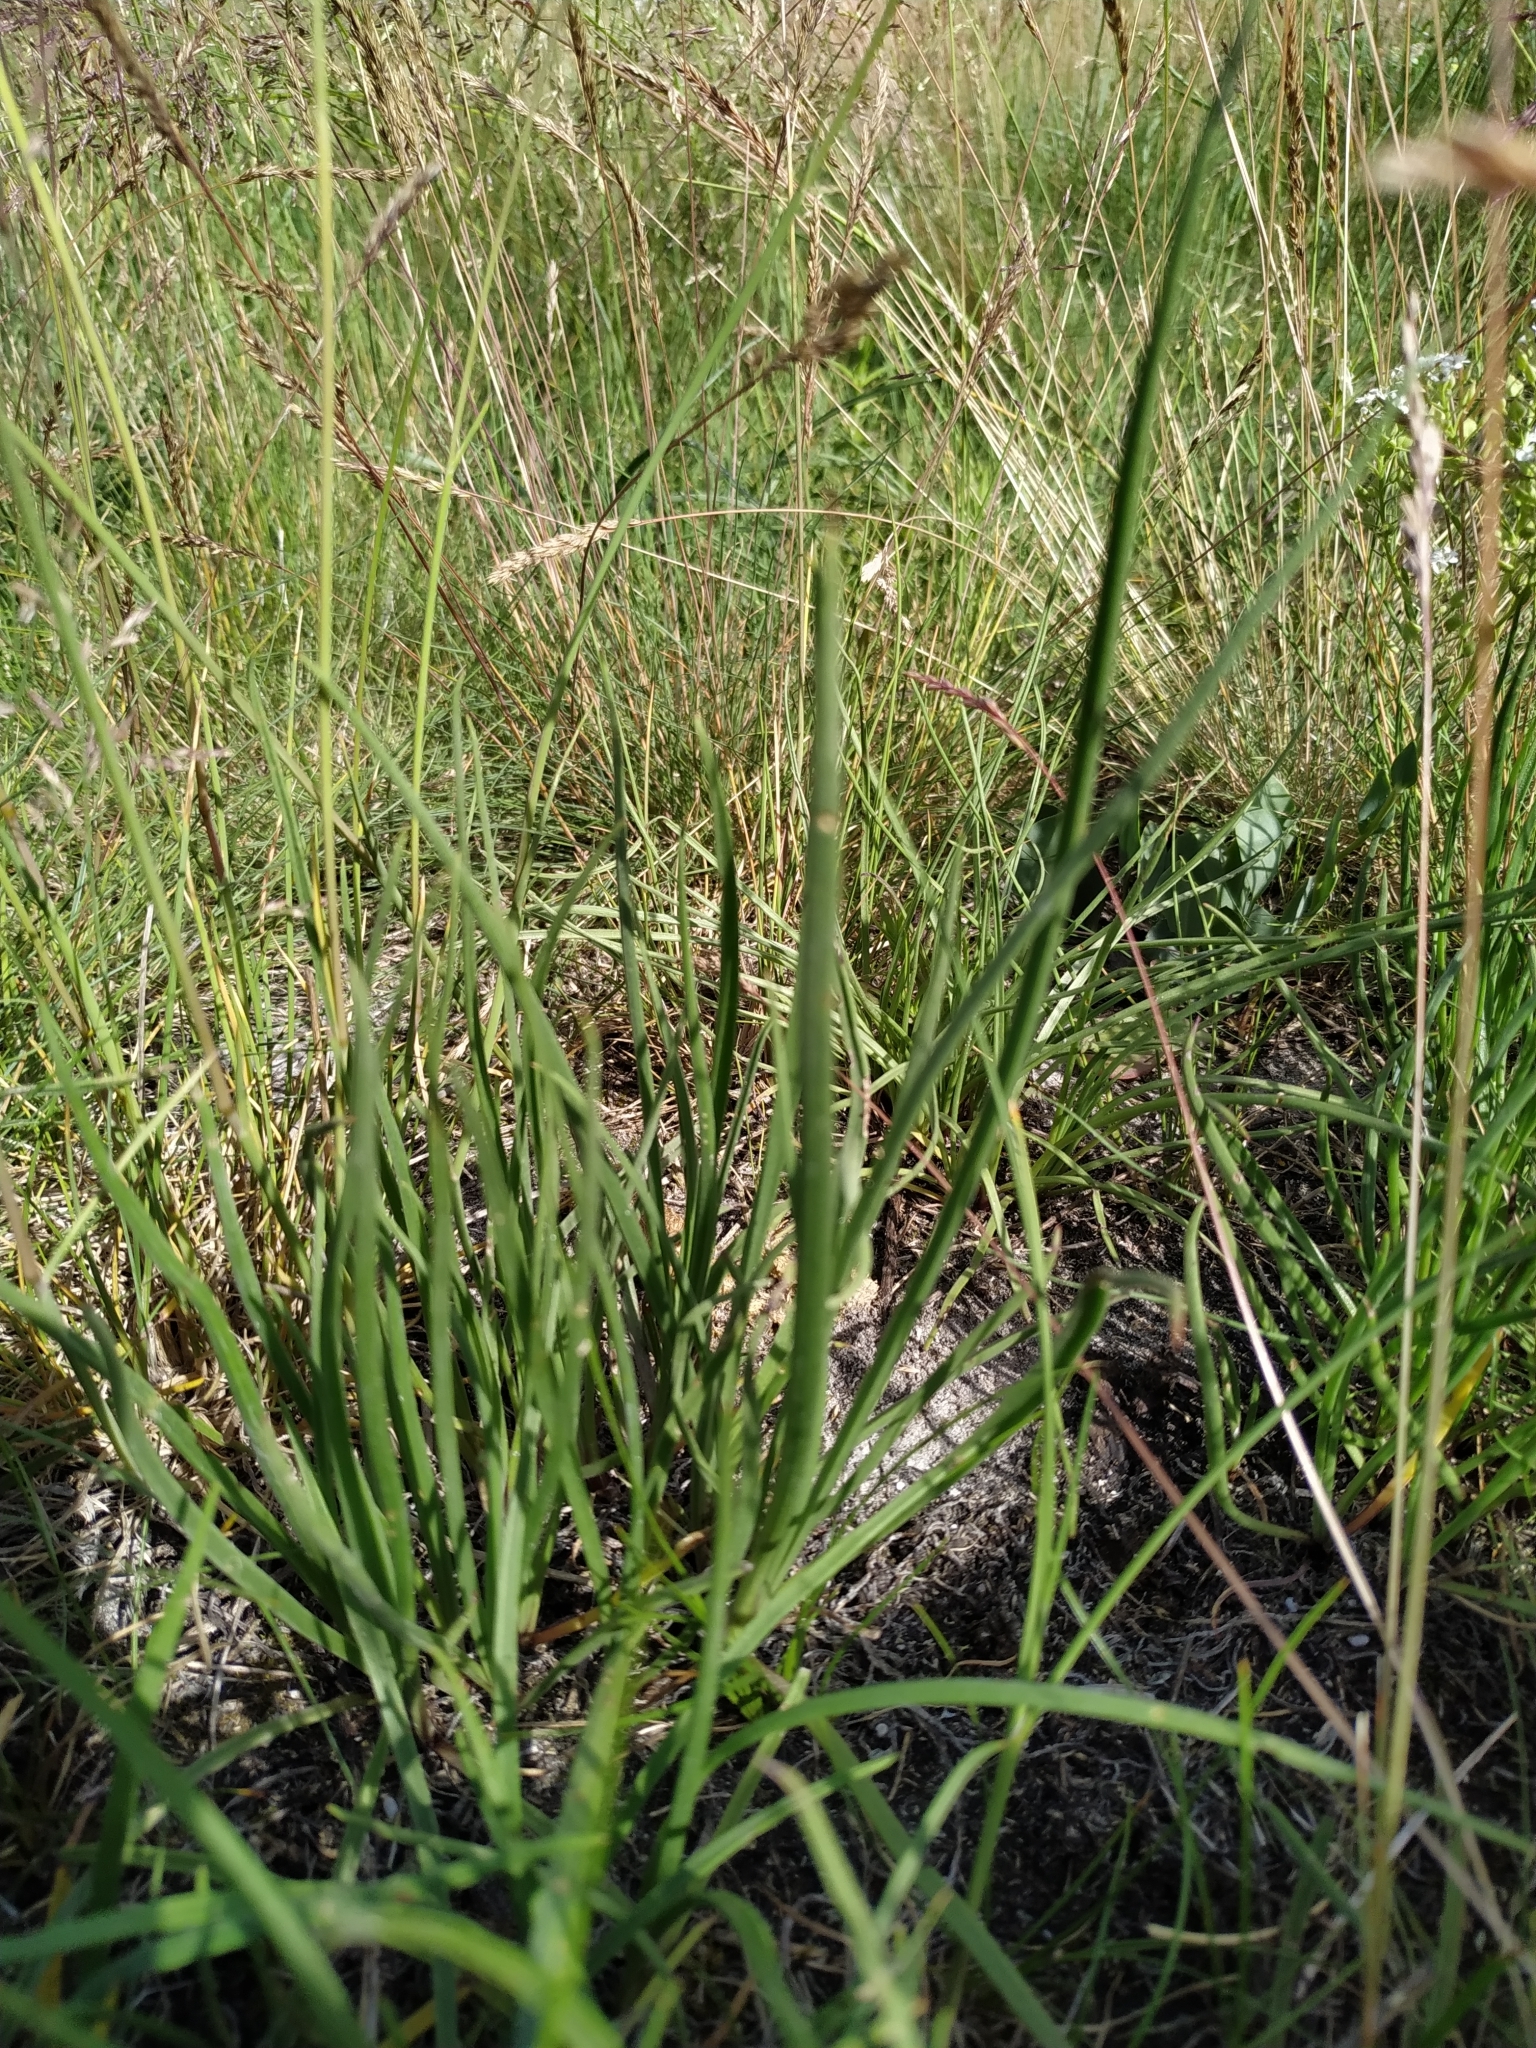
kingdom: Plantae
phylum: Tracheophyta
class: Magnoliopsida
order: Lamiales
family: Plantaginaceae
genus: Plantago
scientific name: Plantago maritima
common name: Sea plantain
